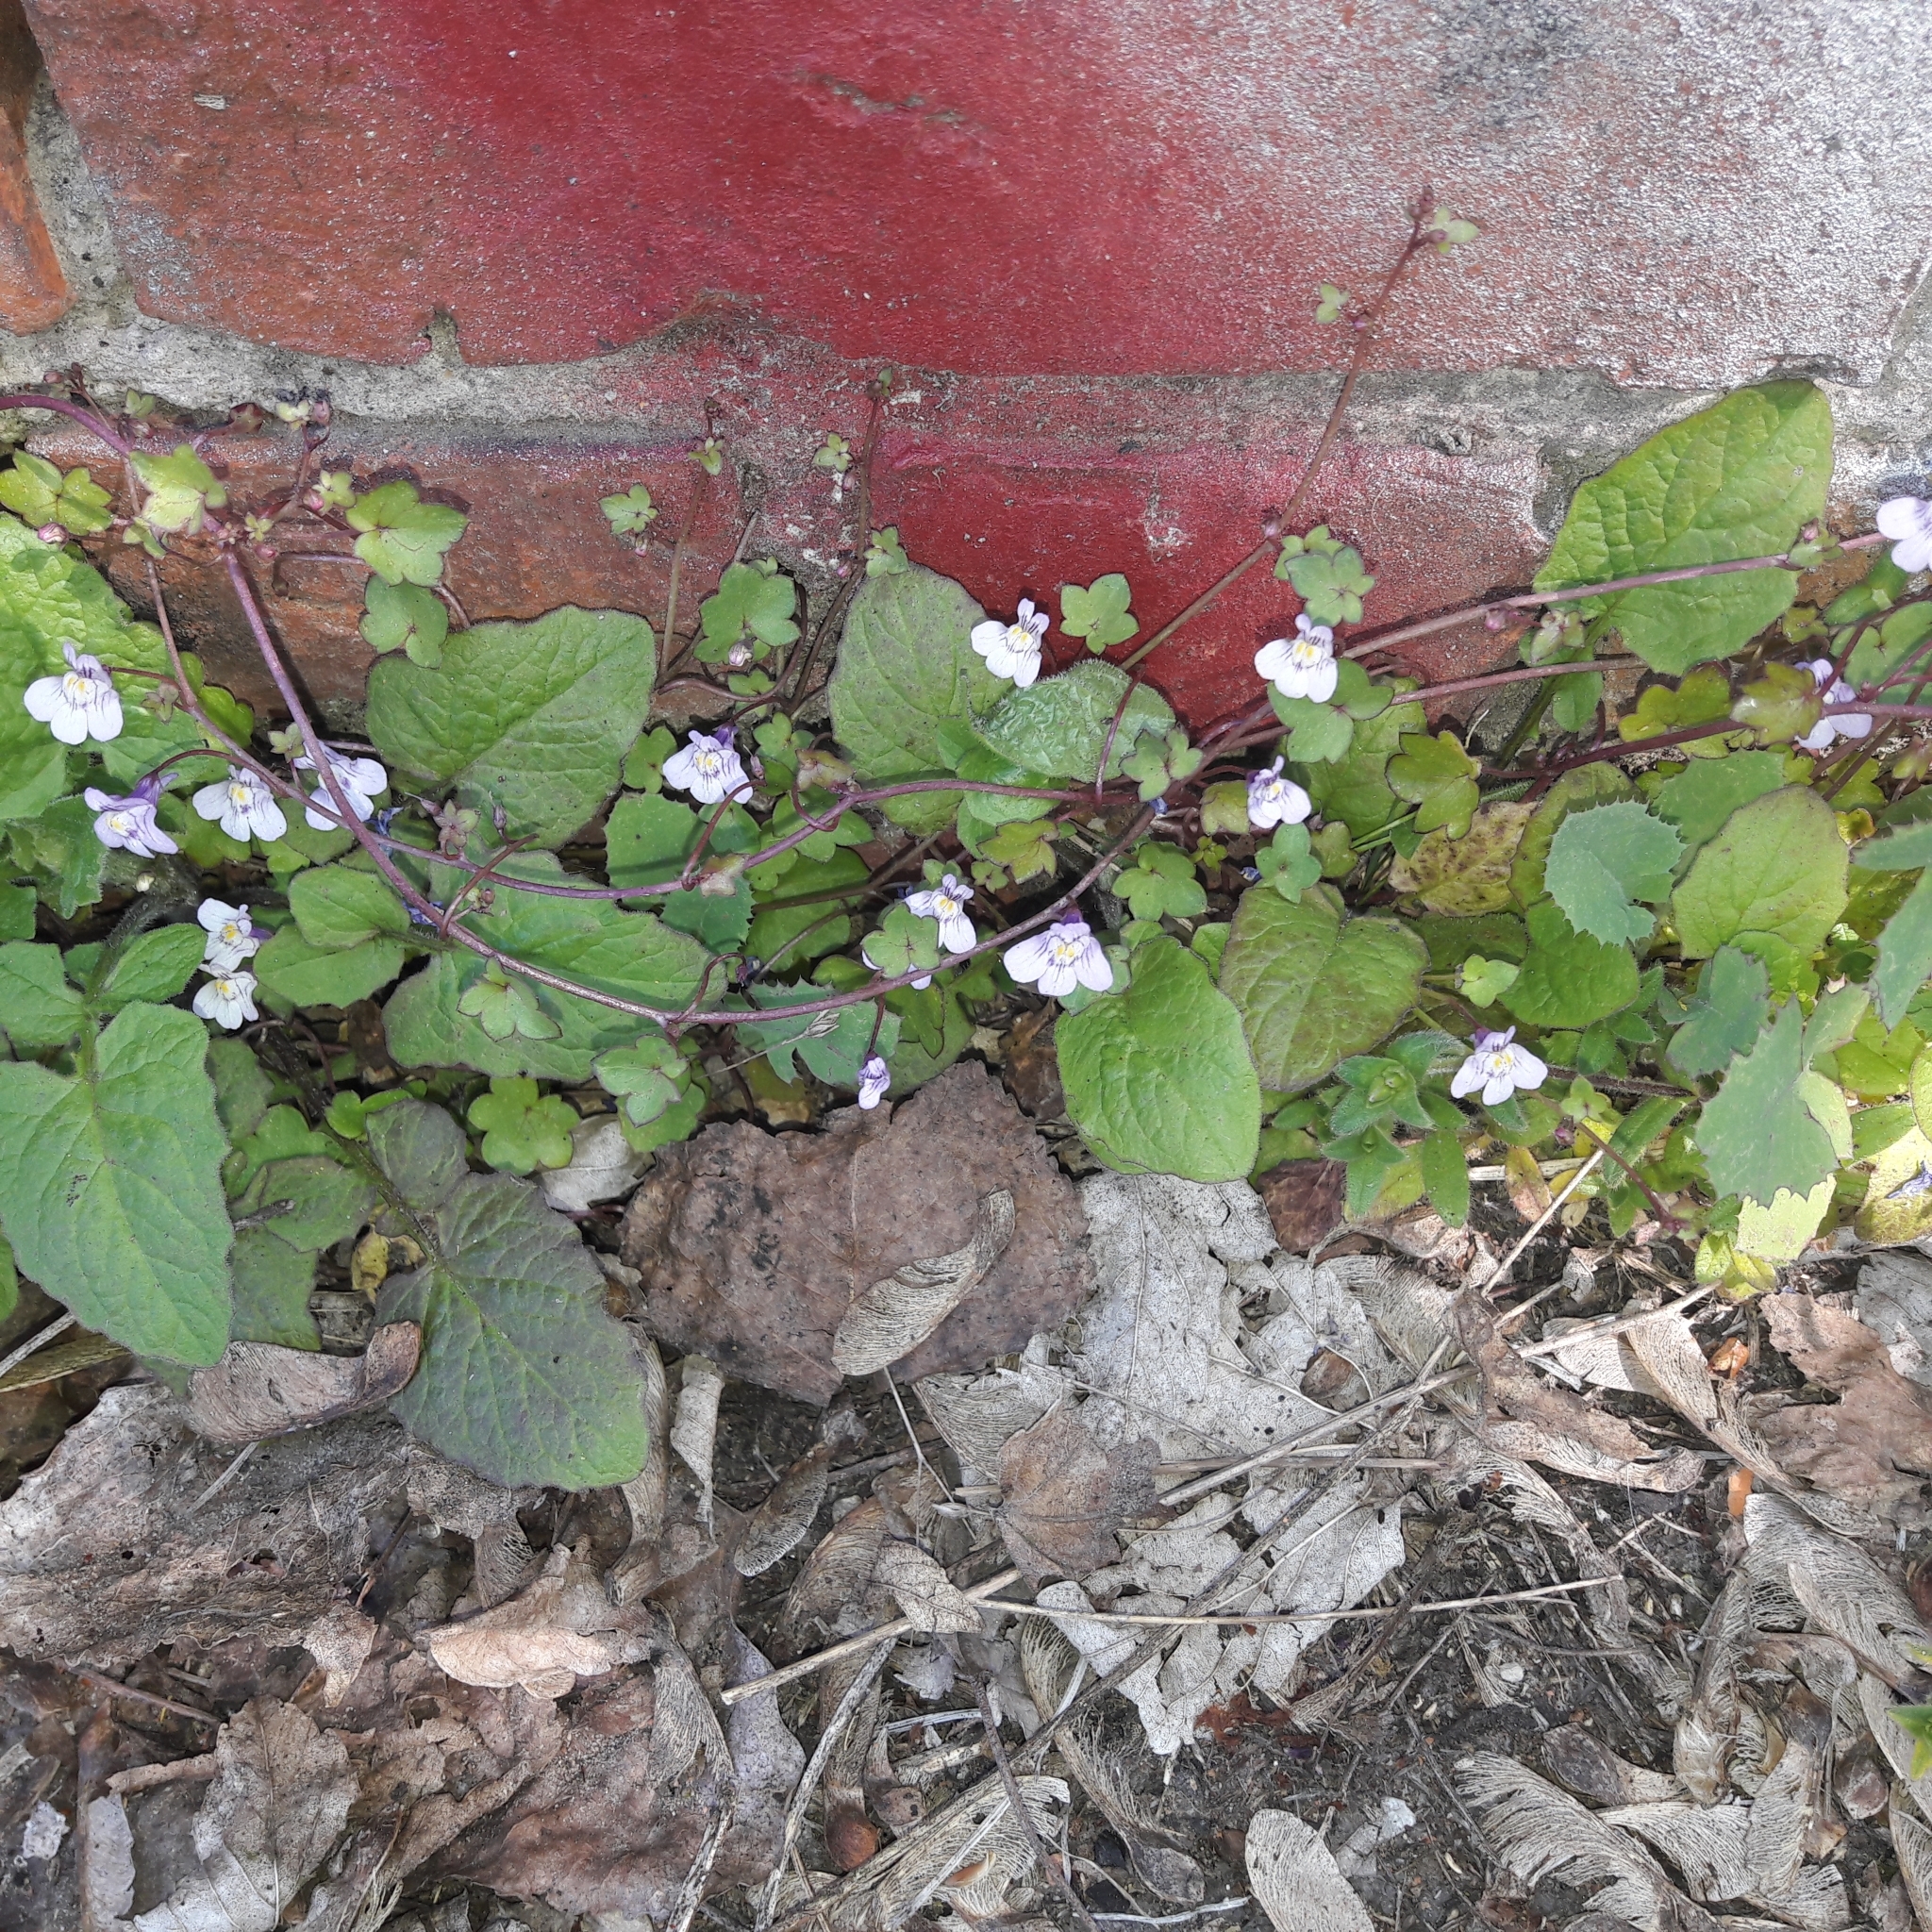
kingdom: Plantae
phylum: Tracheophyta
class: Magnoliopsida
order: Lamiales
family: Plantaginaceae
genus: Cymbalaria
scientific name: Cymbalaria muralis
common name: Ivy-leaved toadflax
